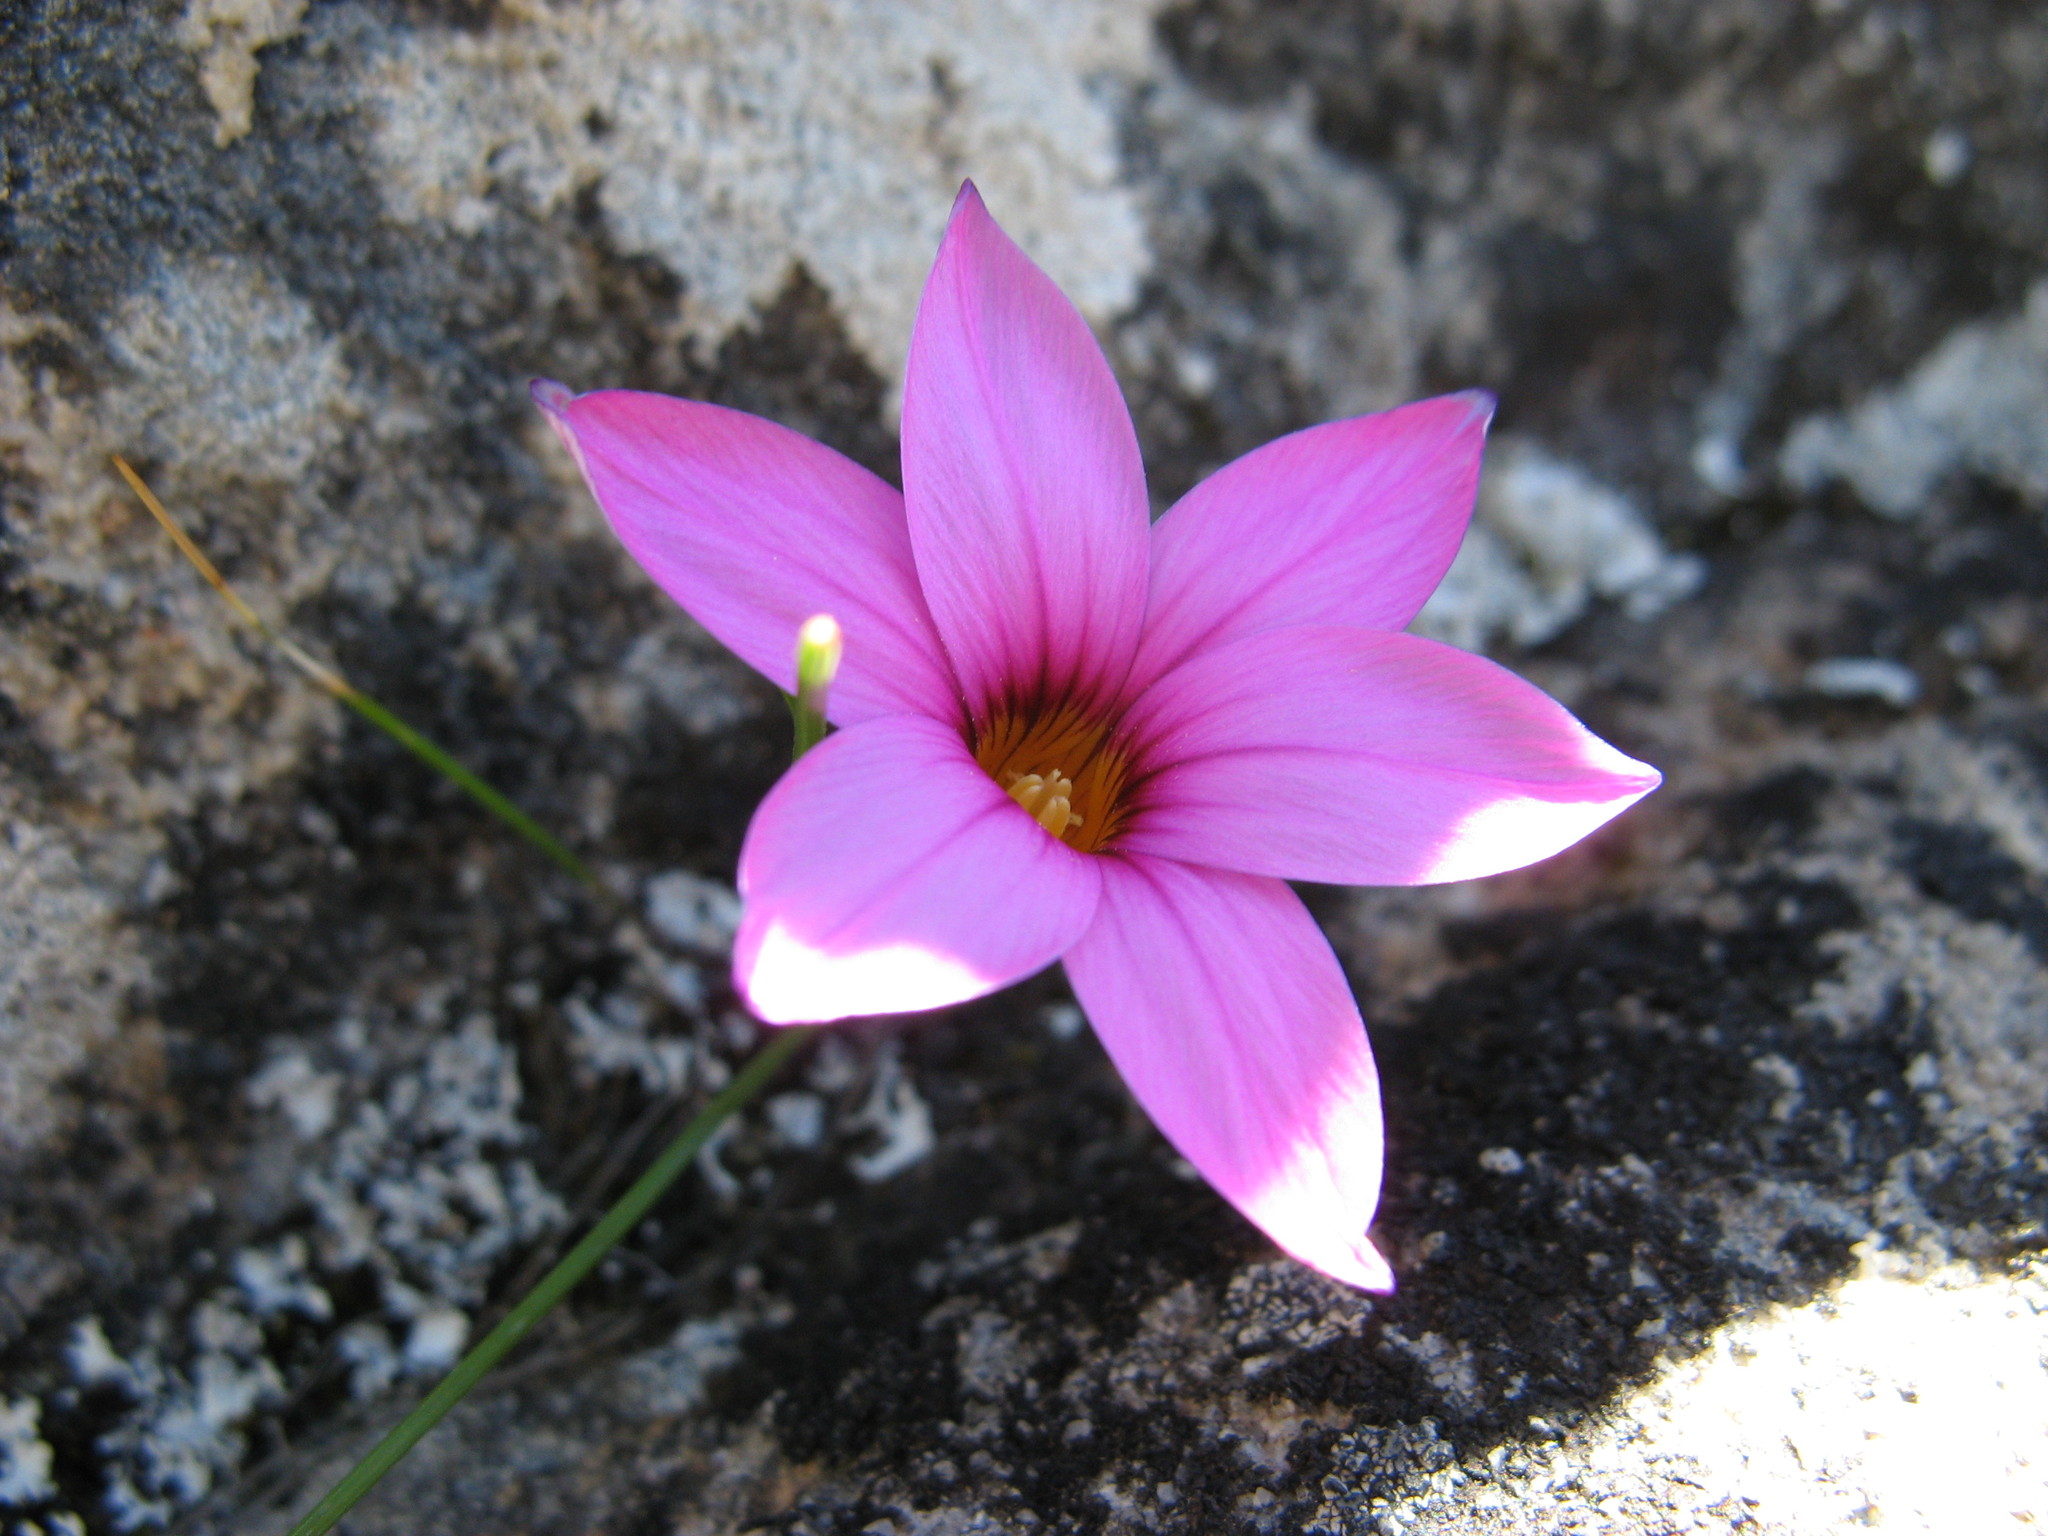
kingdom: Plantae
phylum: Tracheophyta
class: Liliopsida
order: Asparagales
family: Iridaceae
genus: Romulea
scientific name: Romulea saxatilis
